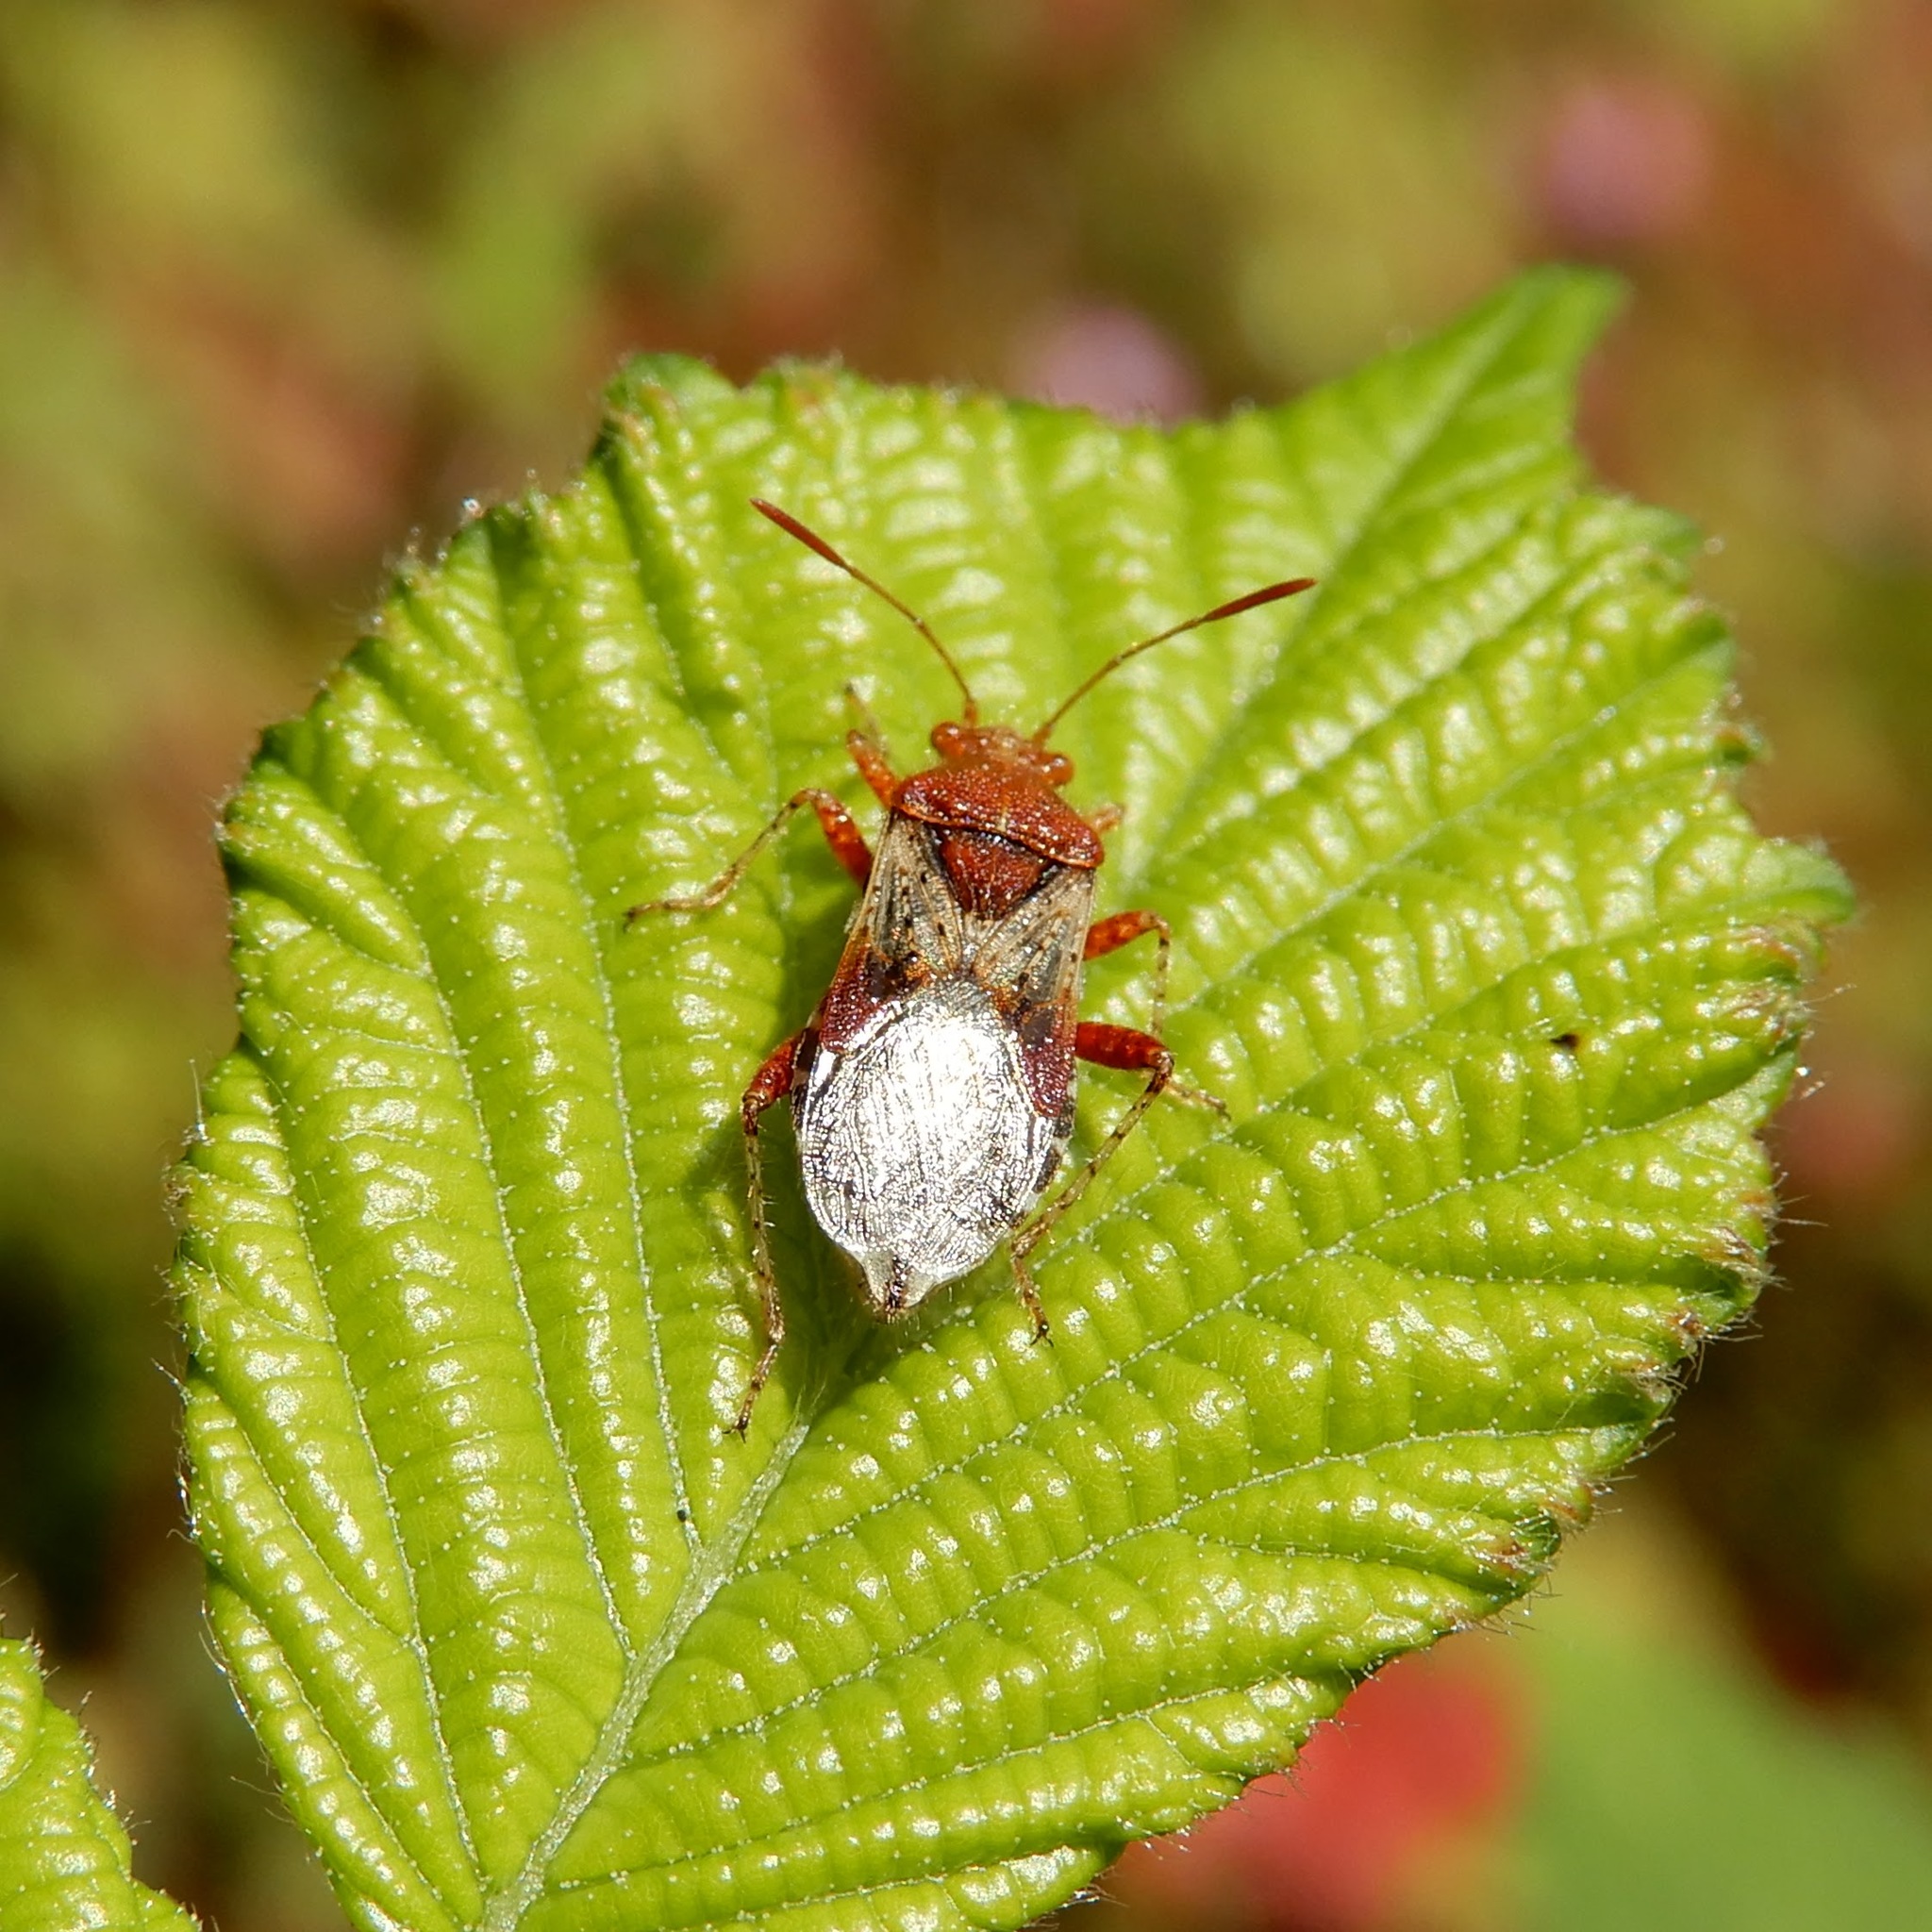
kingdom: Animalia
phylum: Arthropoda
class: Insecta
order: Hemiptera
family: Rhopalidae
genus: Rhopalus
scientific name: Rhopalus subrufus
